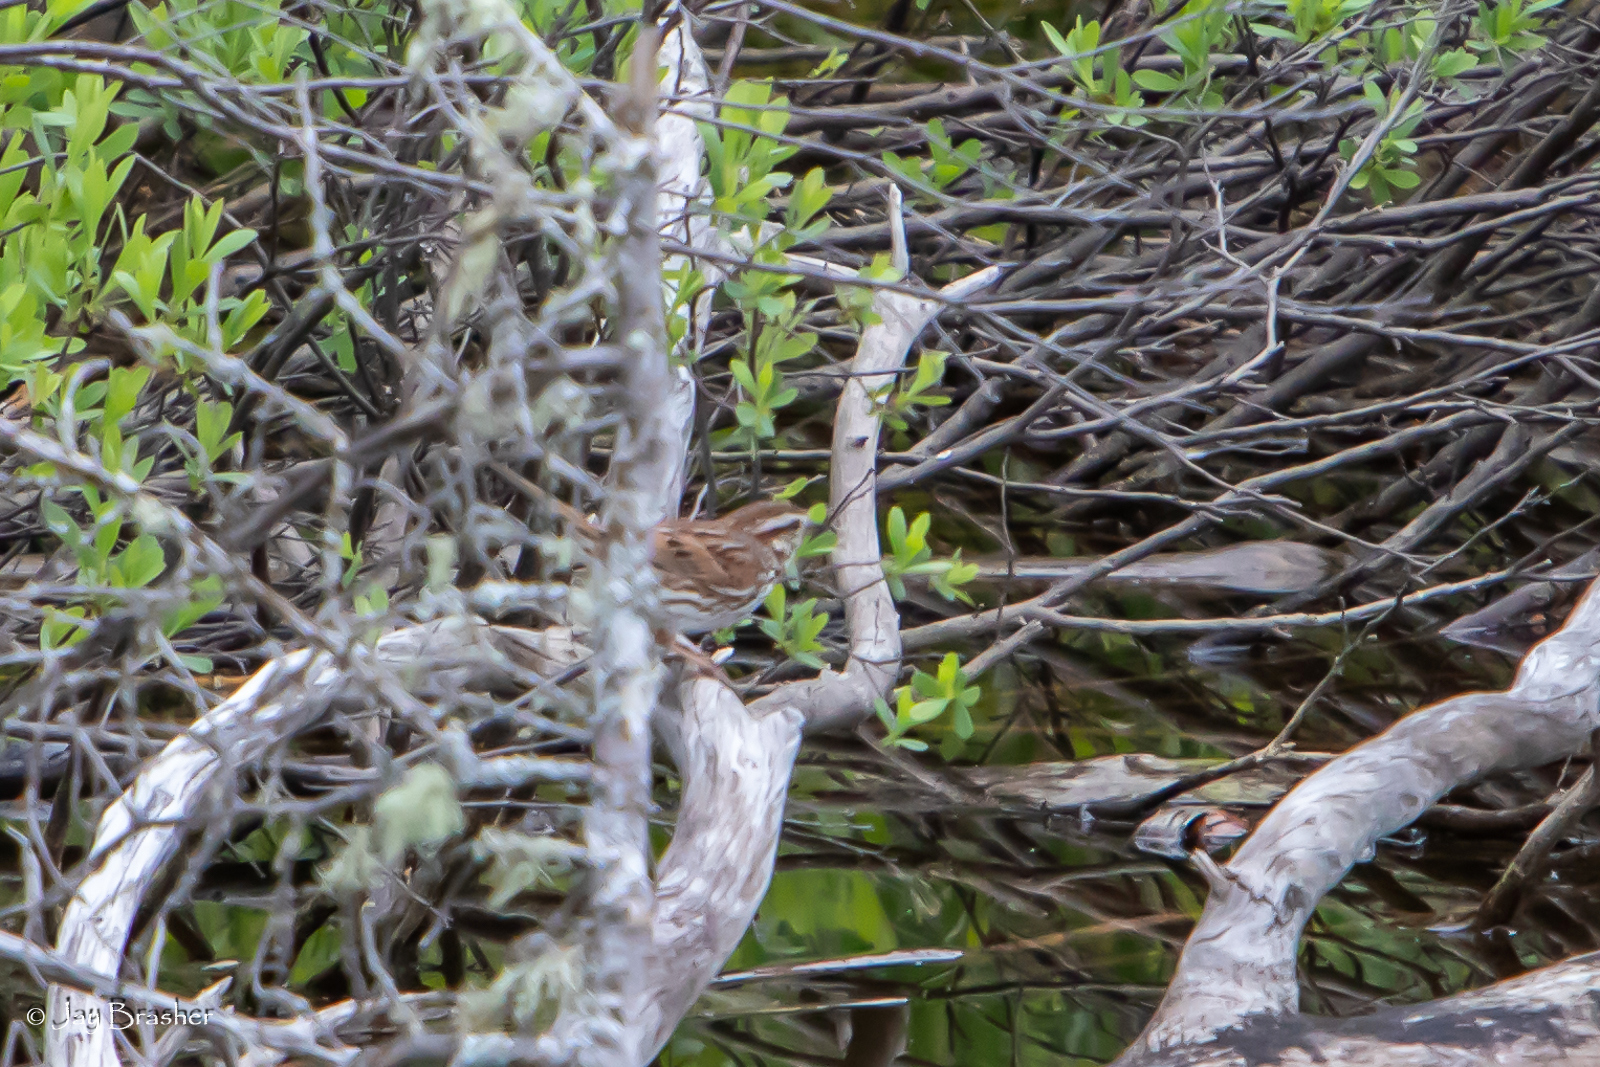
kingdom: Animalia
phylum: Chordata
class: Aves
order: Passeriformes
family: Passerellidae
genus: Melospiza
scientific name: Melospiza melodia
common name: Song sparrow
